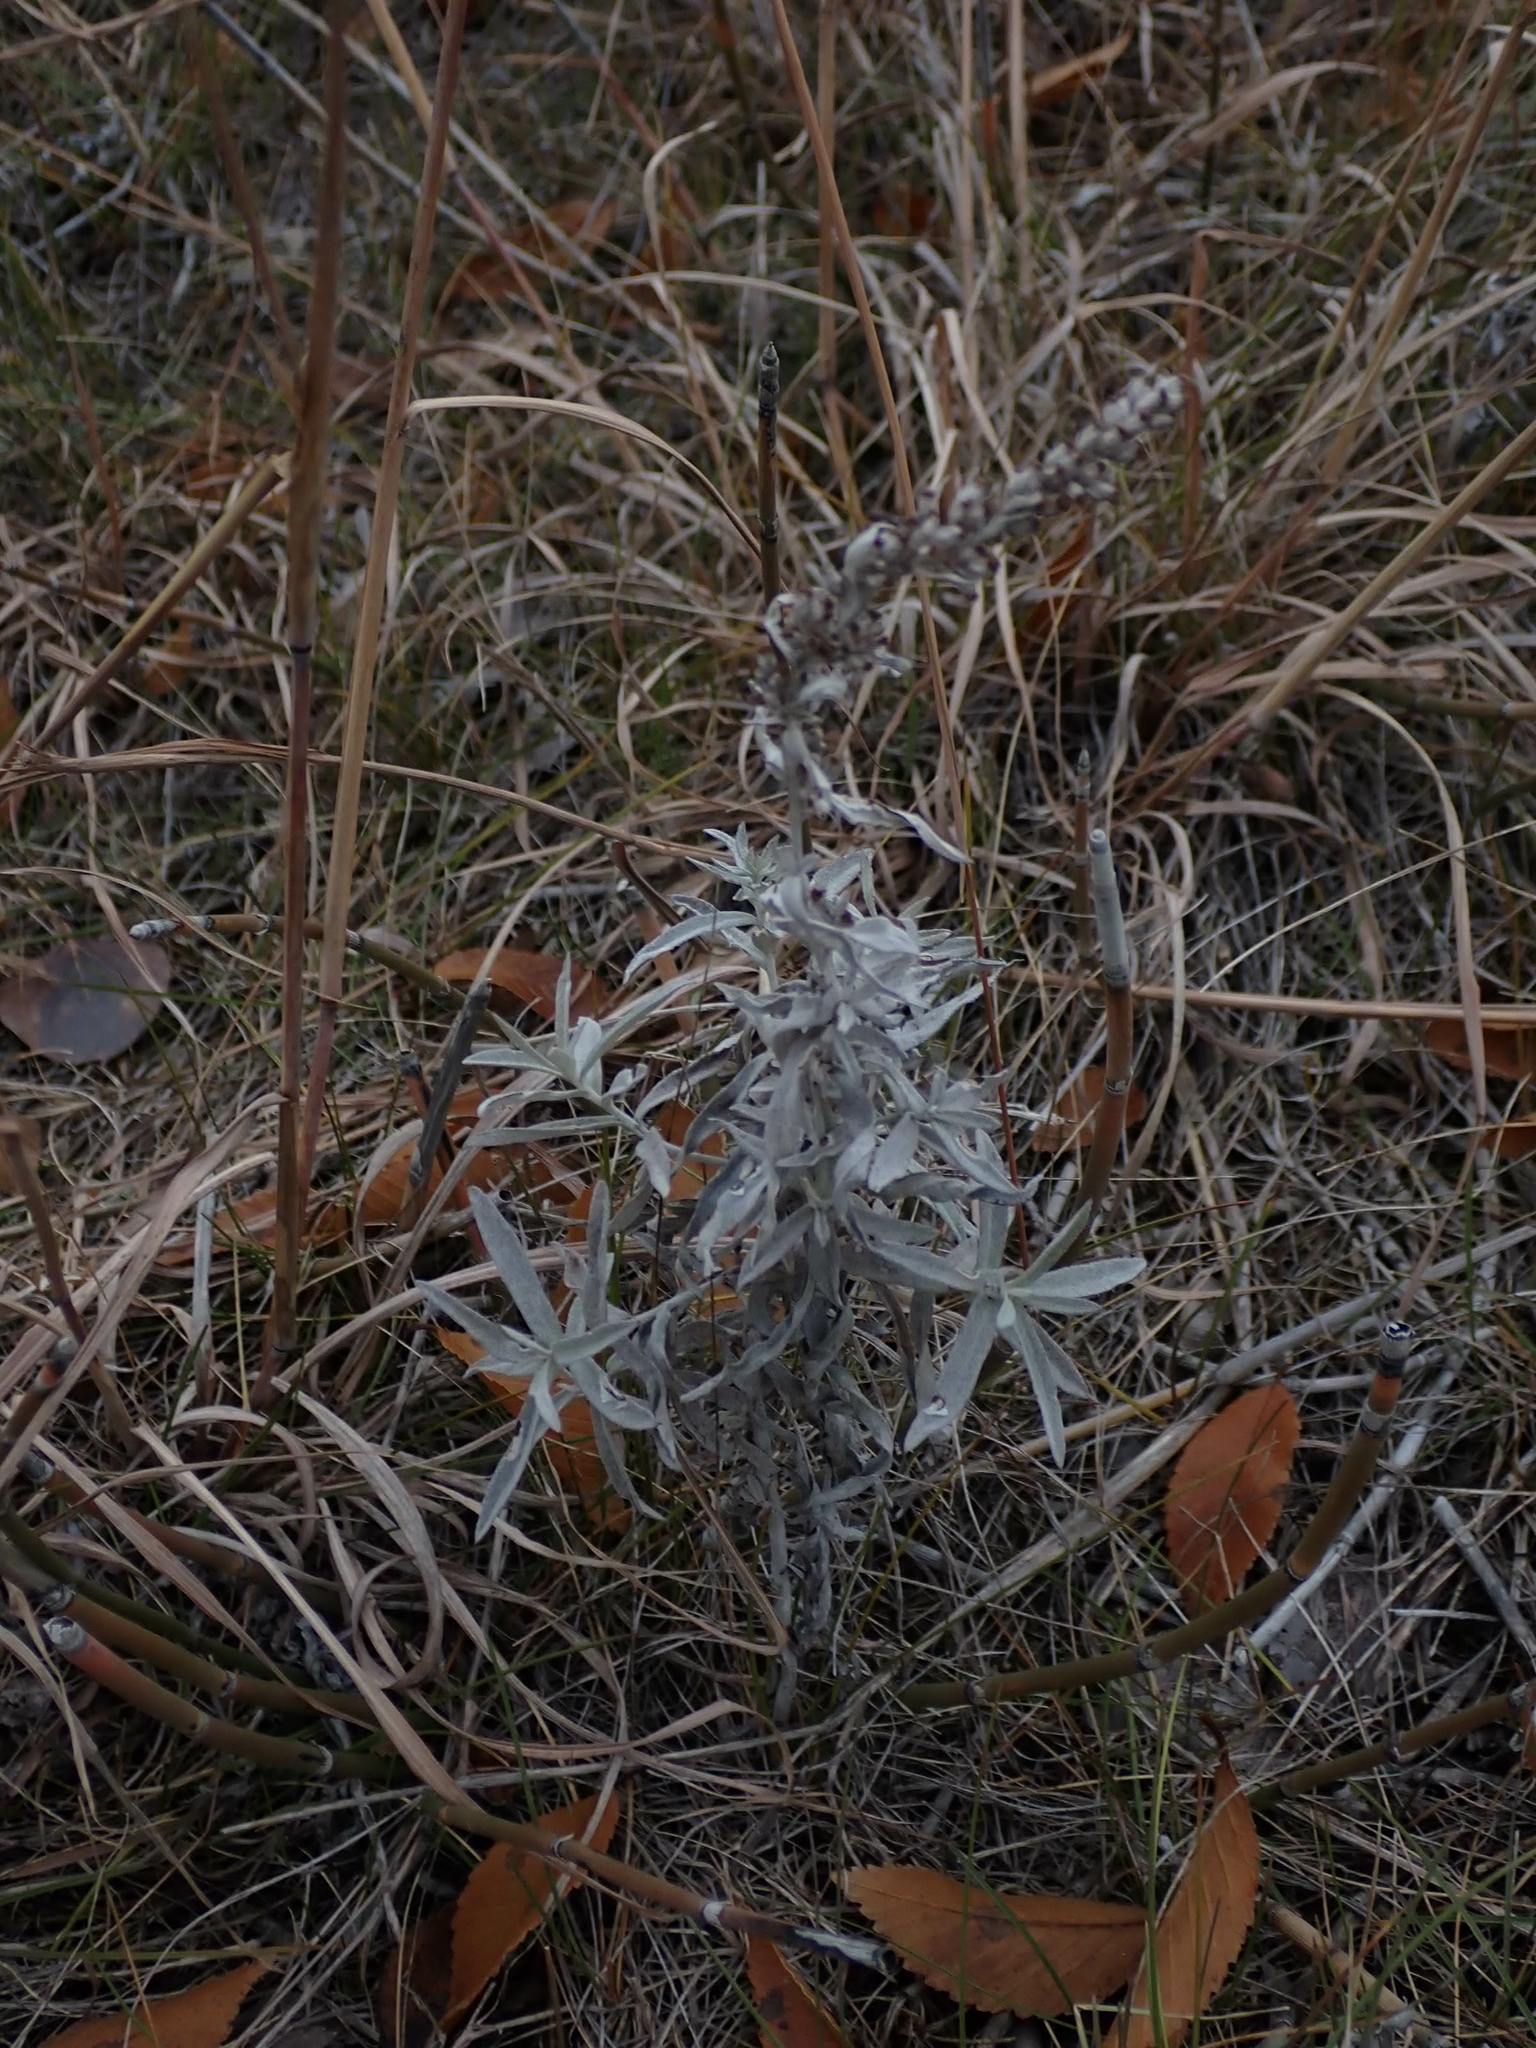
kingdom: Plantae
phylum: Tracheophyta
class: Magnoliopsida
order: Asterales
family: Asteraceae
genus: Artemisia
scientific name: Artemisia ludoviciana
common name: Western mugwort
